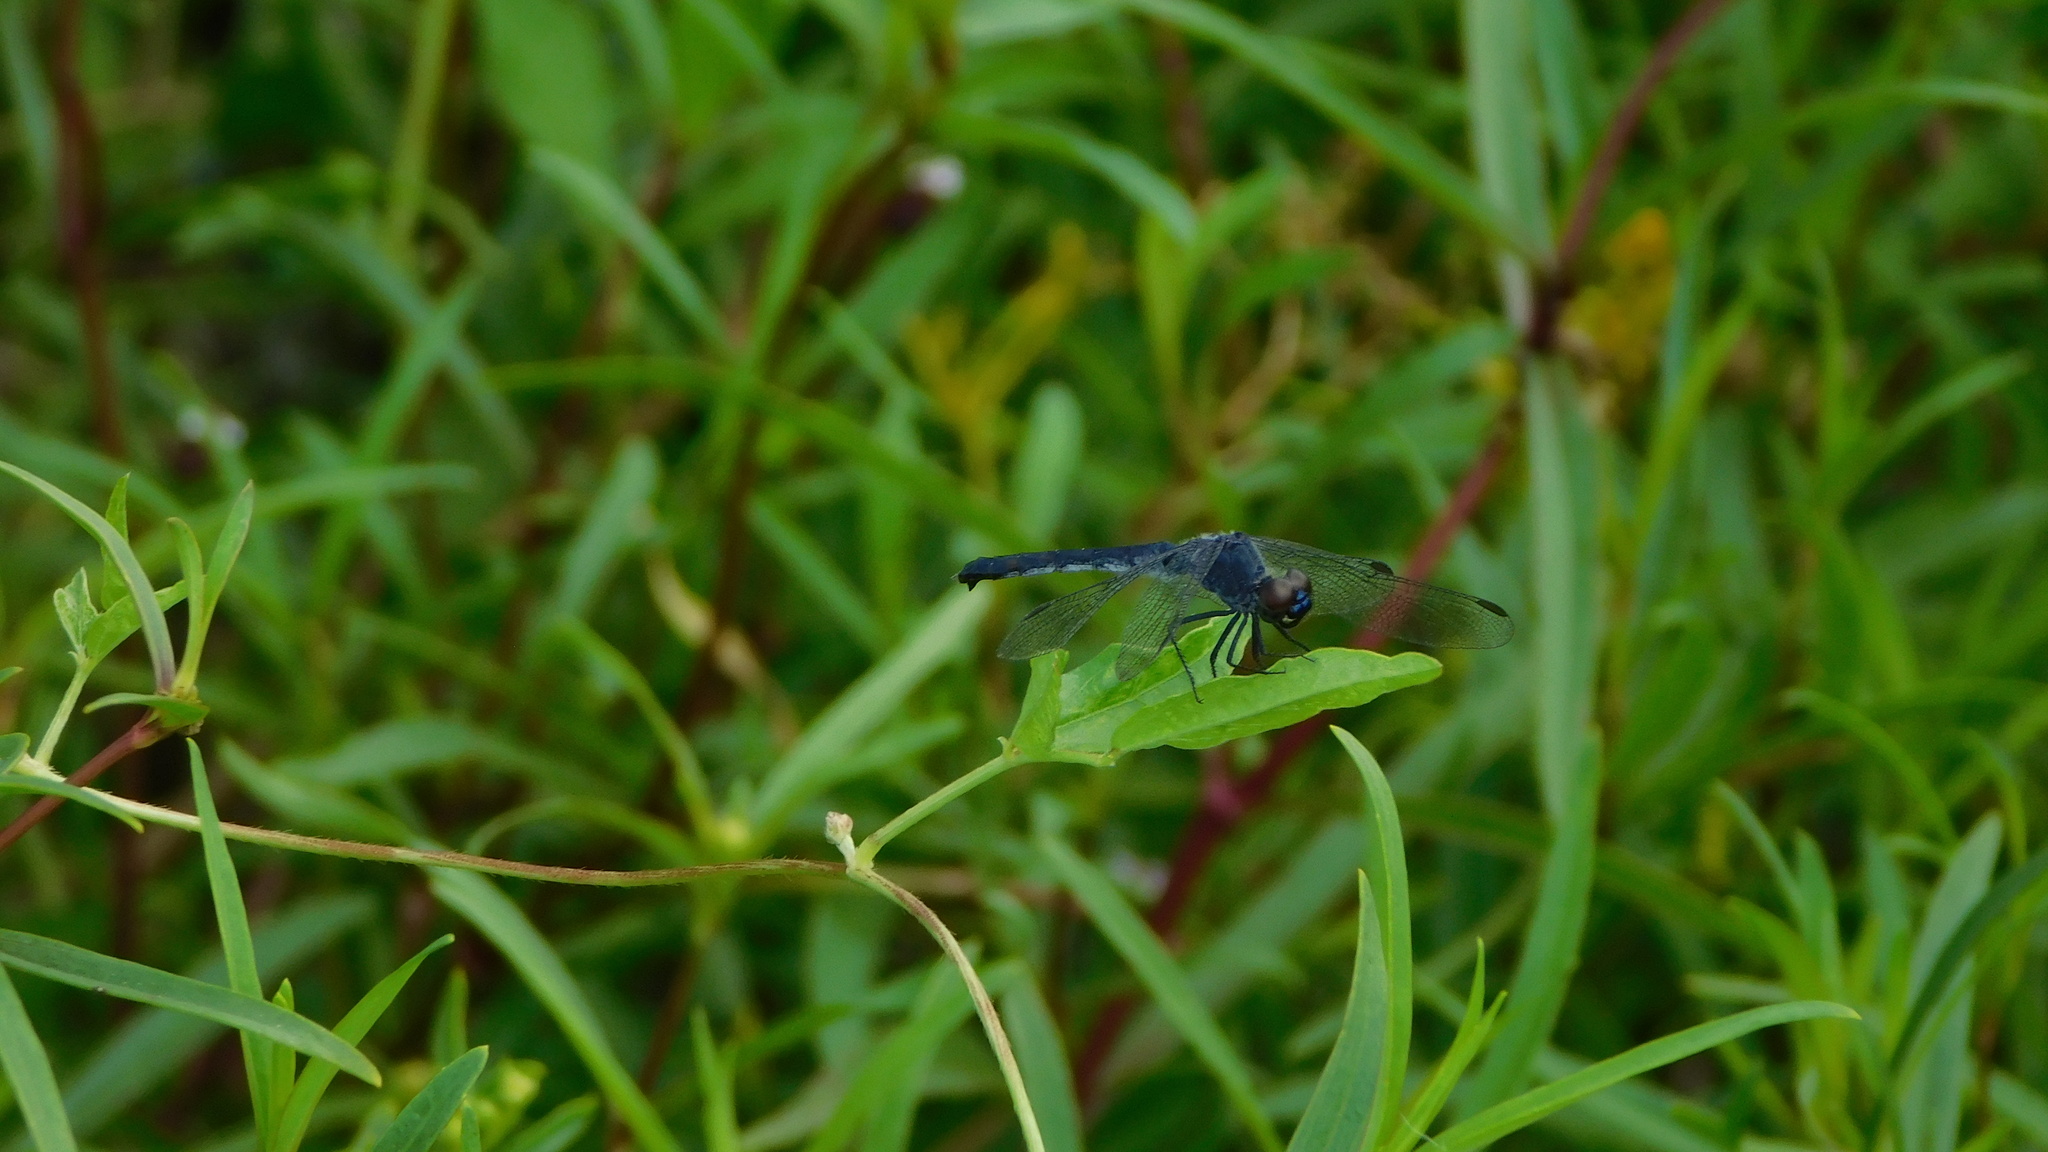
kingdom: Animalia
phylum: Arthropoda
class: Insecta
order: Odonata
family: Libellulidae
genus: Erythrodiplax
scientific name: Erythrodiplax berenice
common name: Seaside dragonlet
